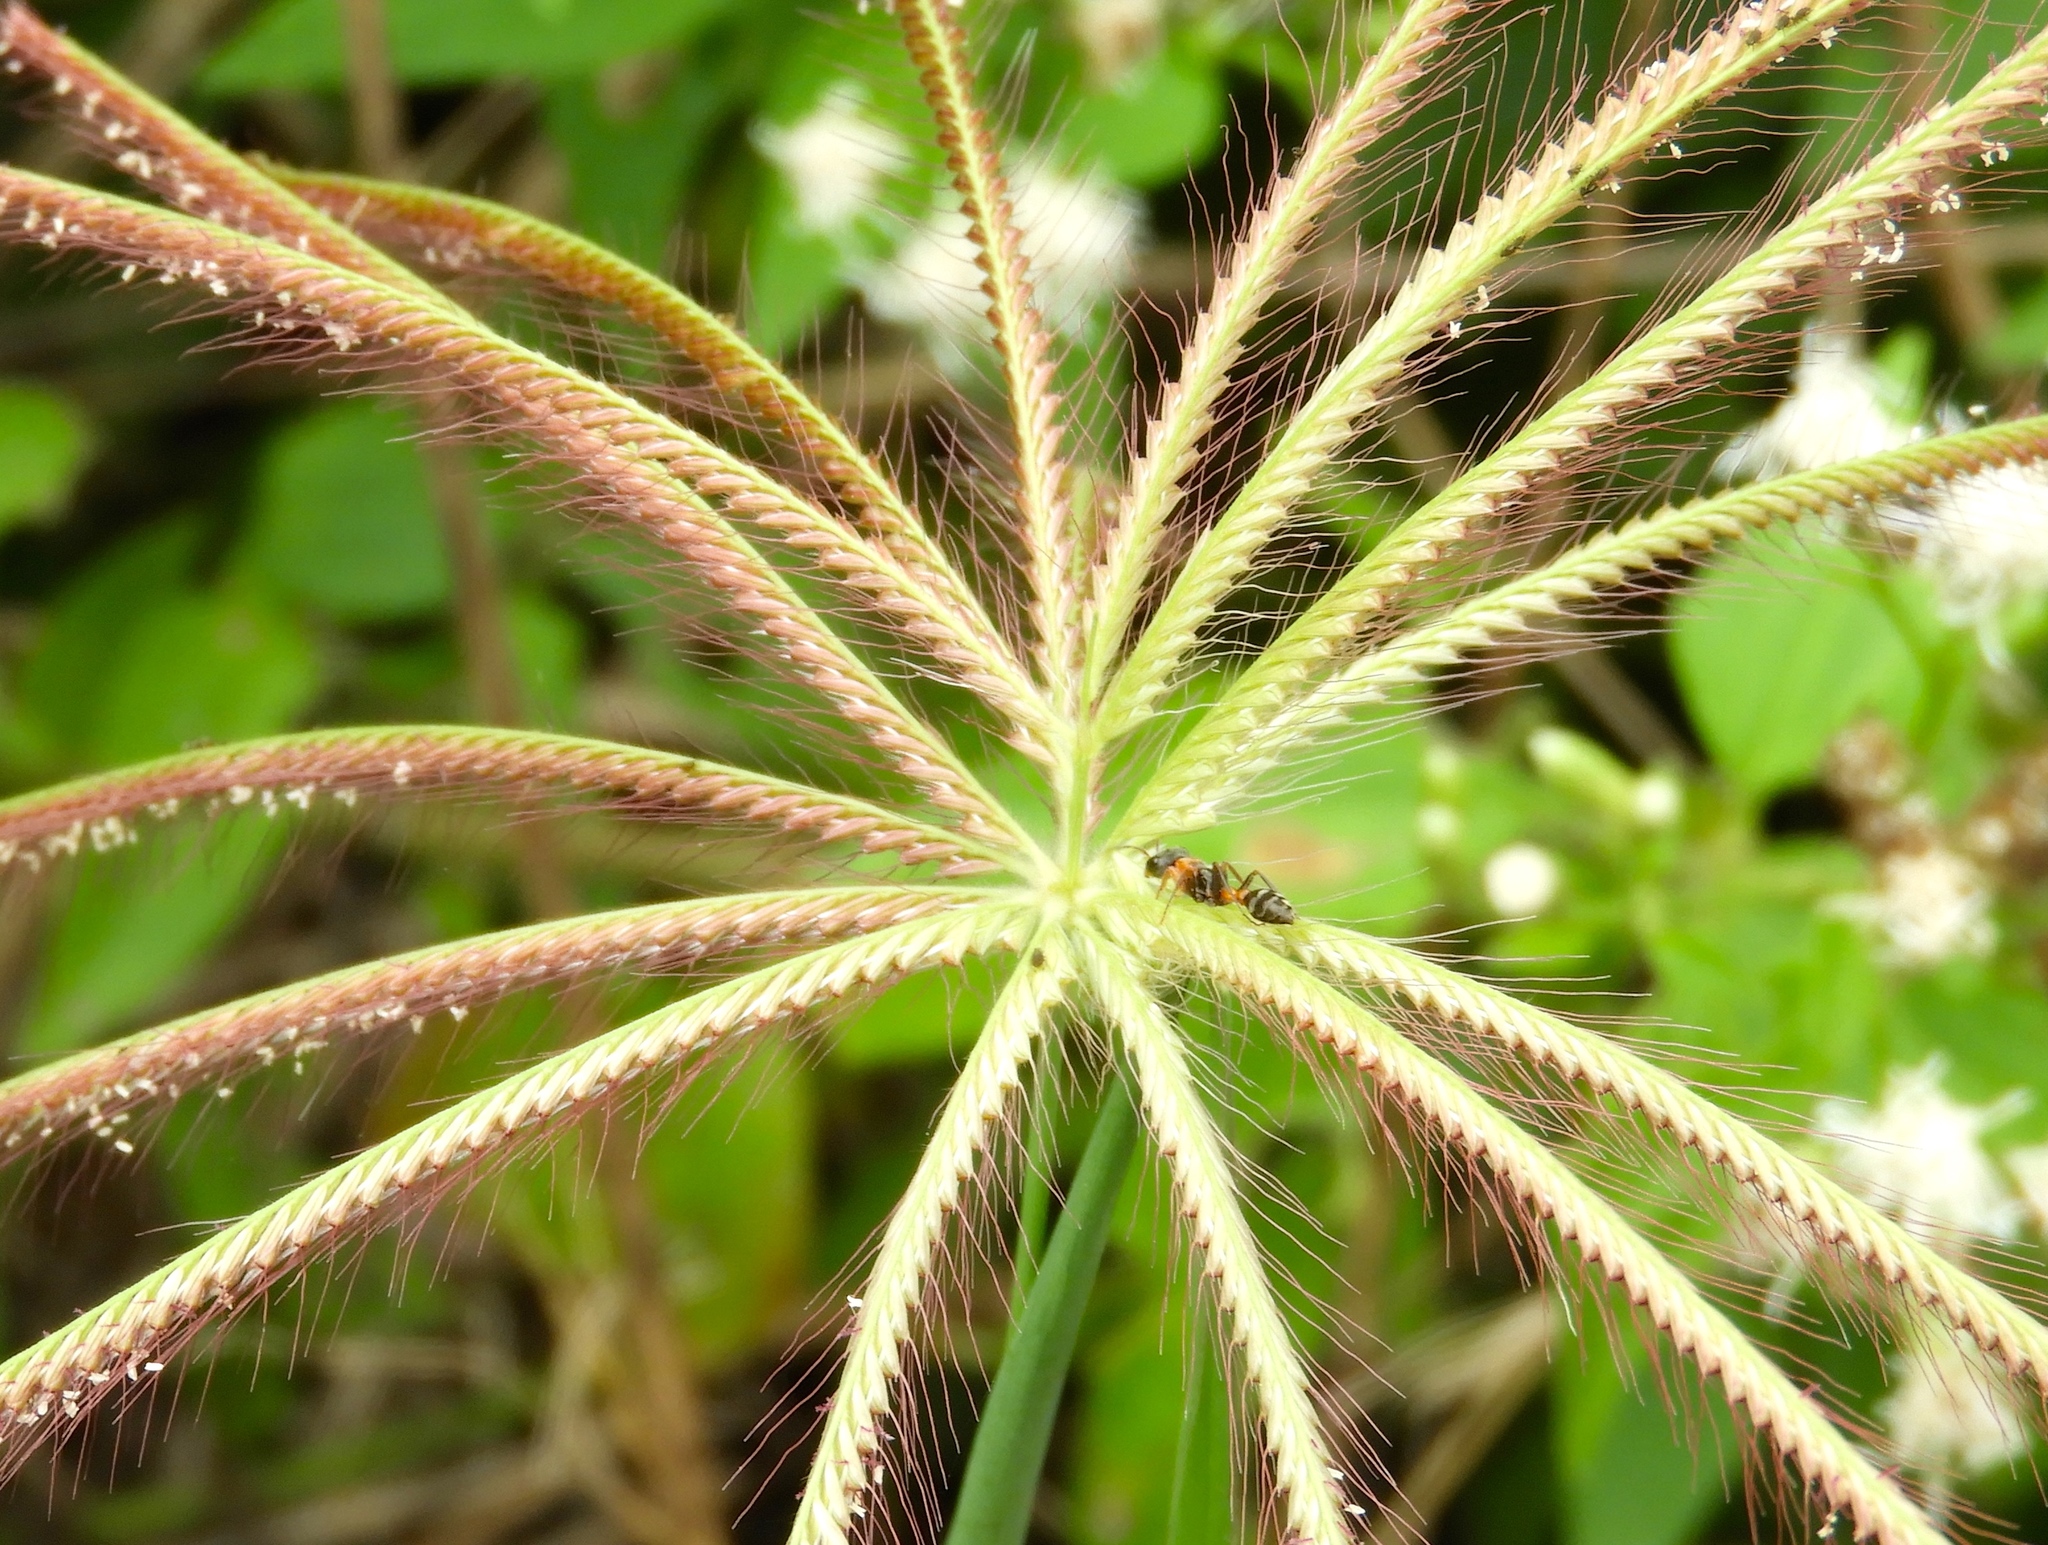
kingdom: Animalia
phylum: Arthropoda
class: Insecta
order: Hymenoptera
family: Formicidae
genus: Pseudomyrmex
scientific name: Pseudomyrmex gracilis
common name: Graceful twig ant
